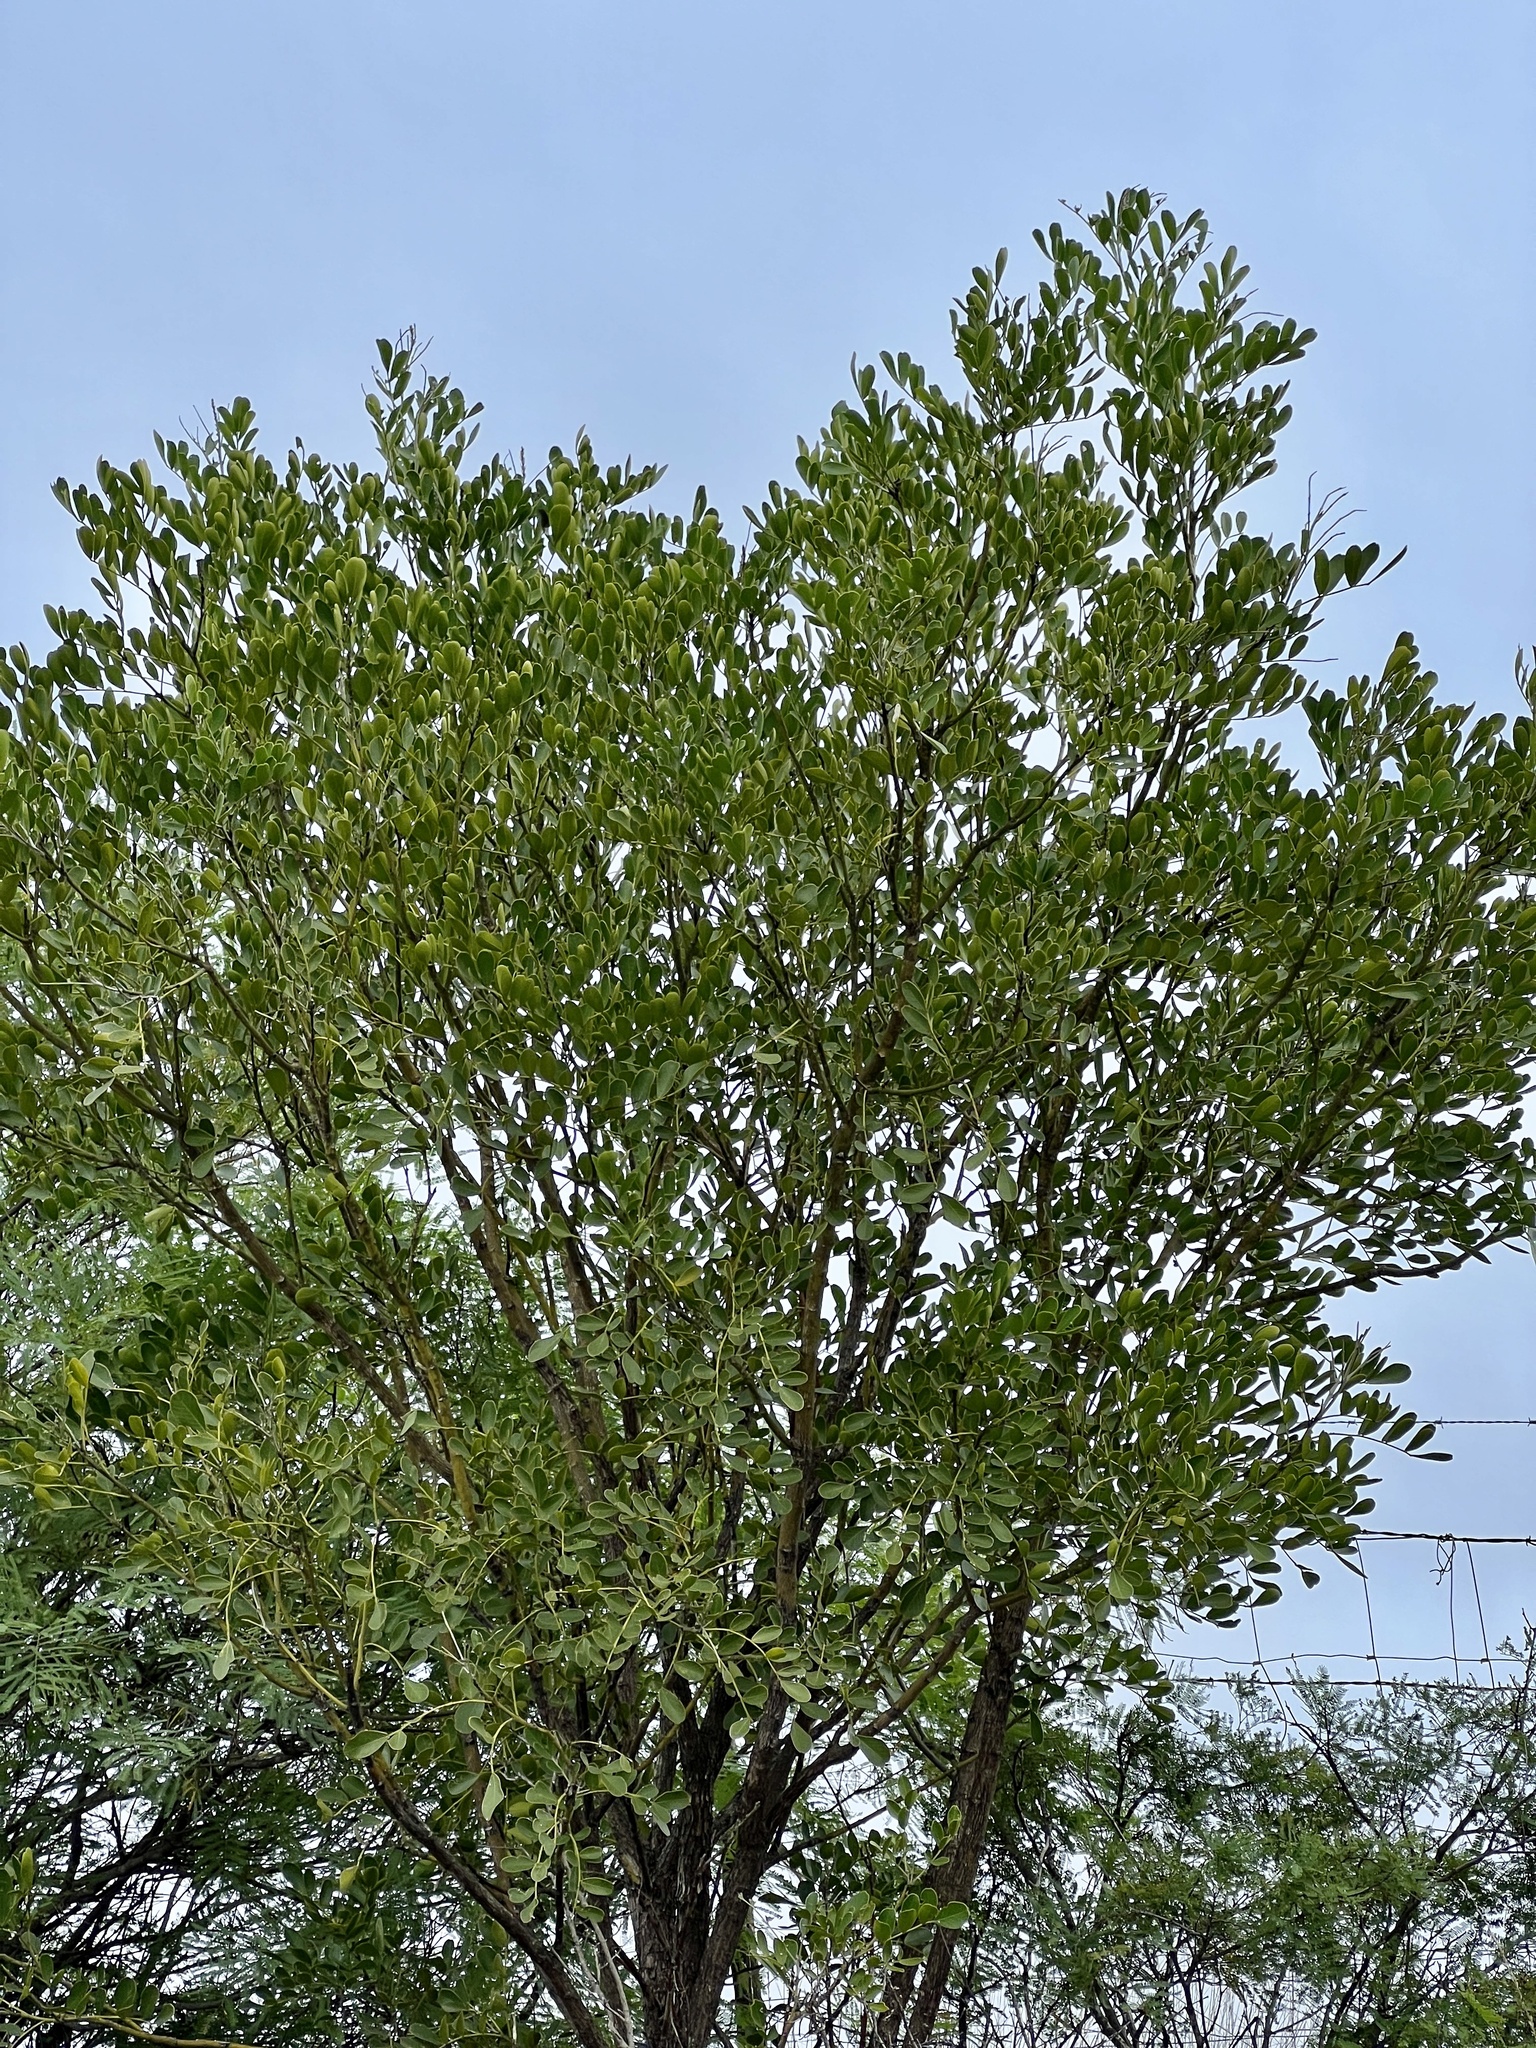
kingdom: Plantae
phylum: Tracheophyta
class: Magnoliopsida
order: Fabales
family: Fabaceae
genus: Dermatophyllum
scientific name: Dermatophyllum secundiflorum
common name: Texas-mountain-laurel
